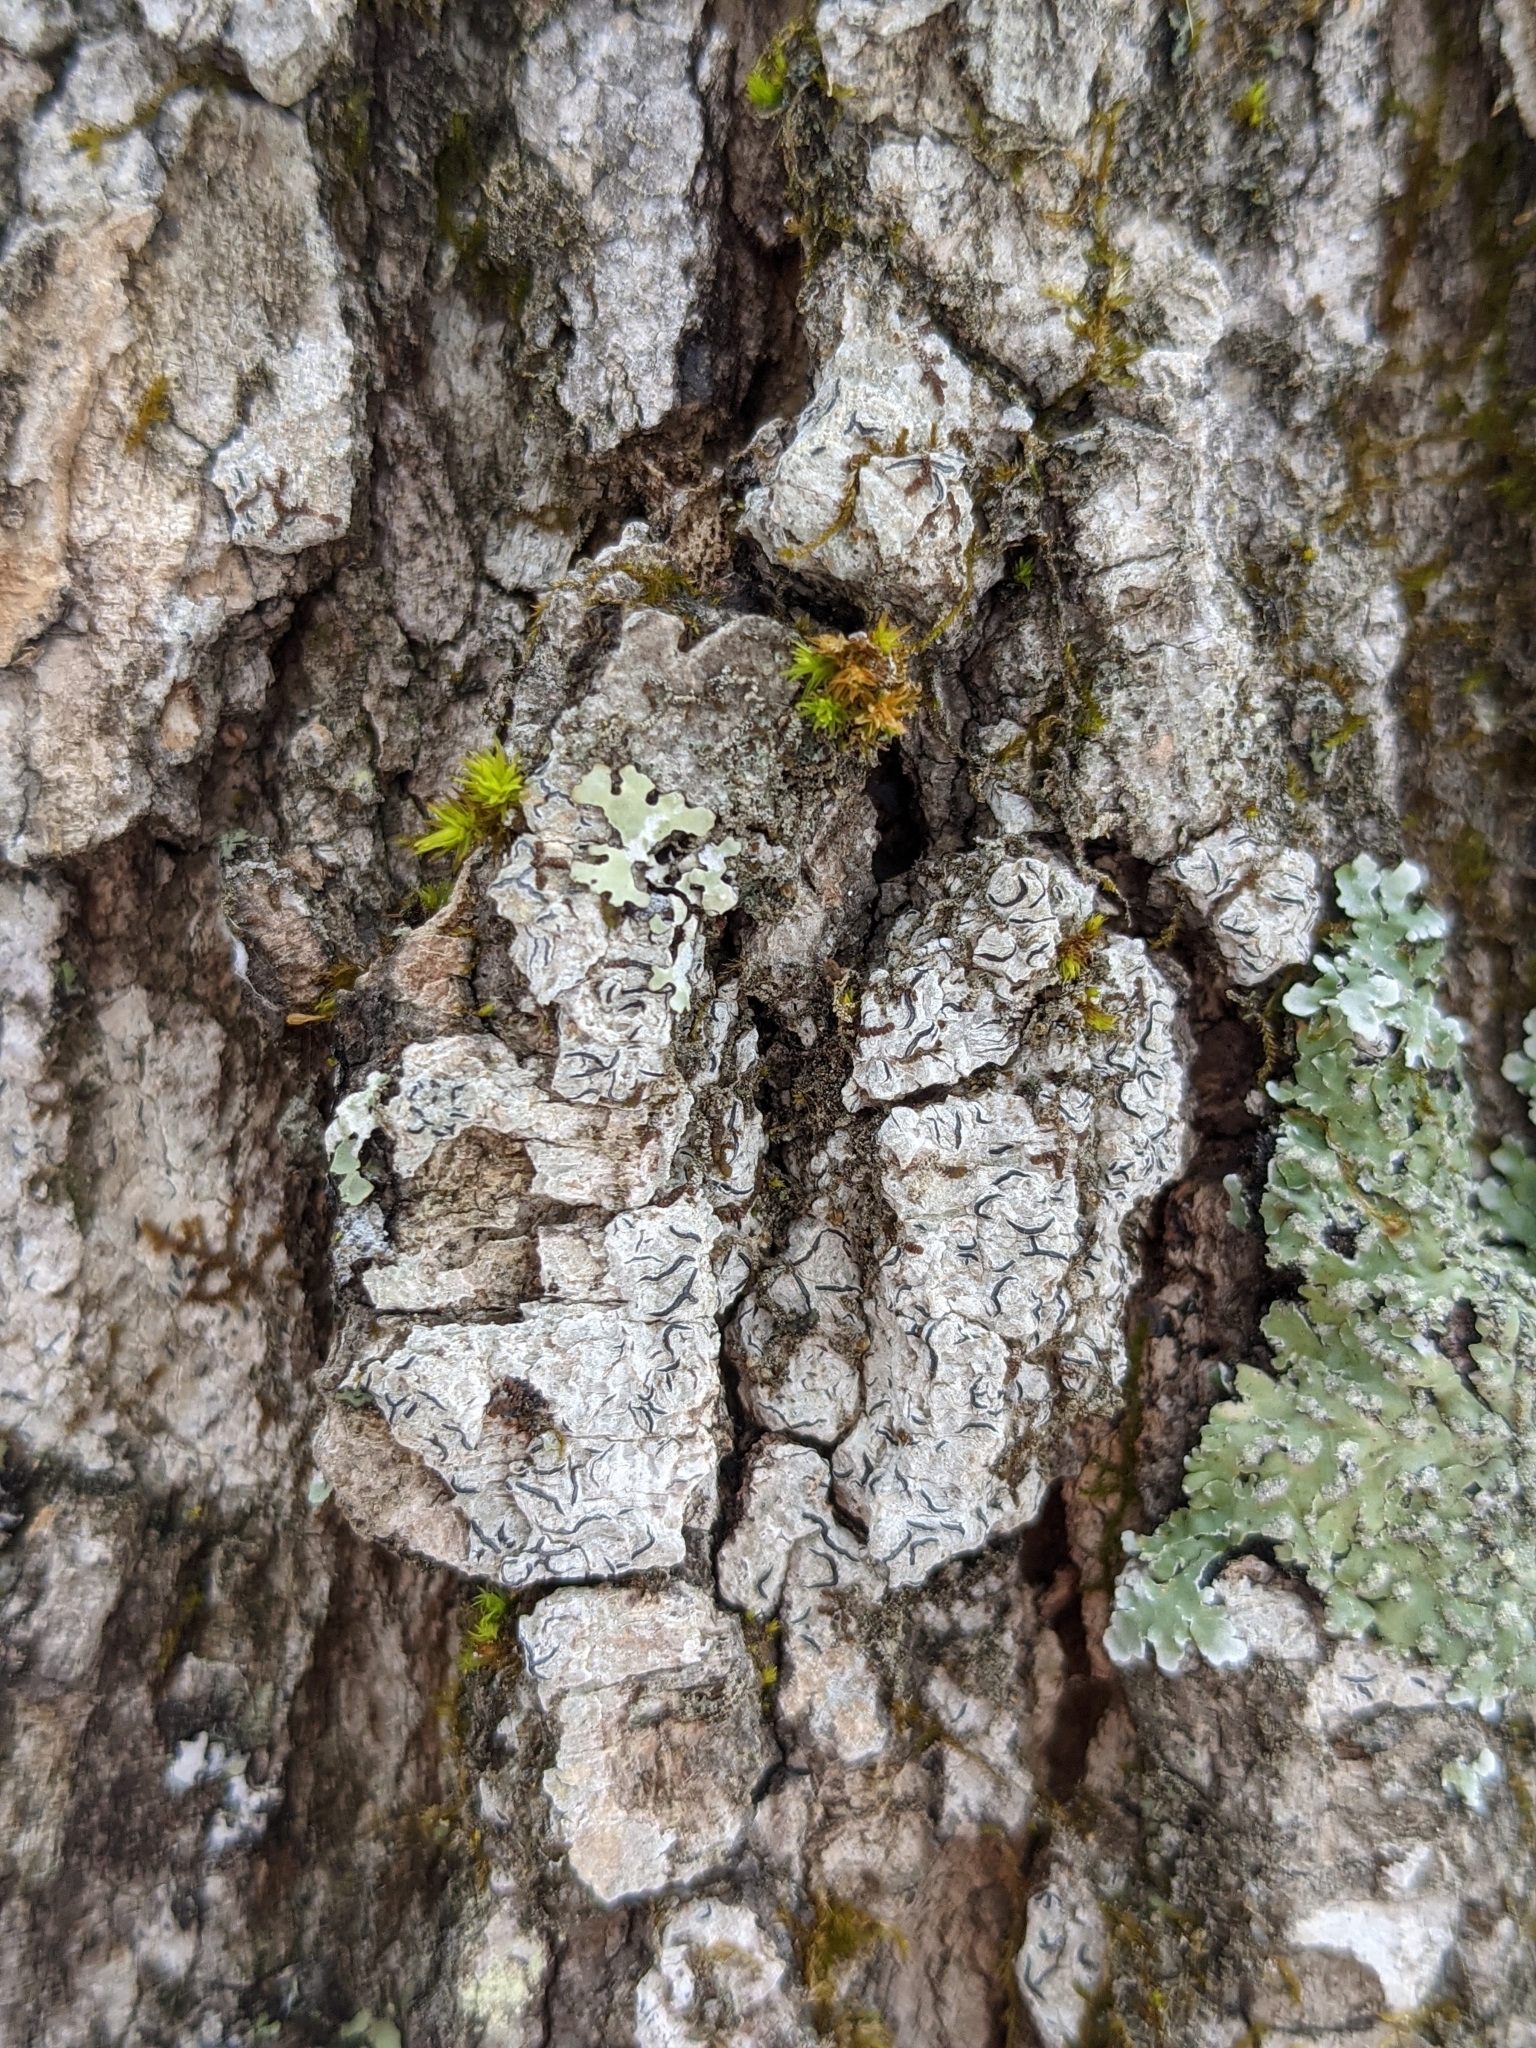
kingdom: Fungi
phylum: Ascomycota
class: Lecanoromycetes
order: Ostropales
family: Graphidaceae
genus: Graphis
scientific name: Graphis scripta
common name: Script lichen
